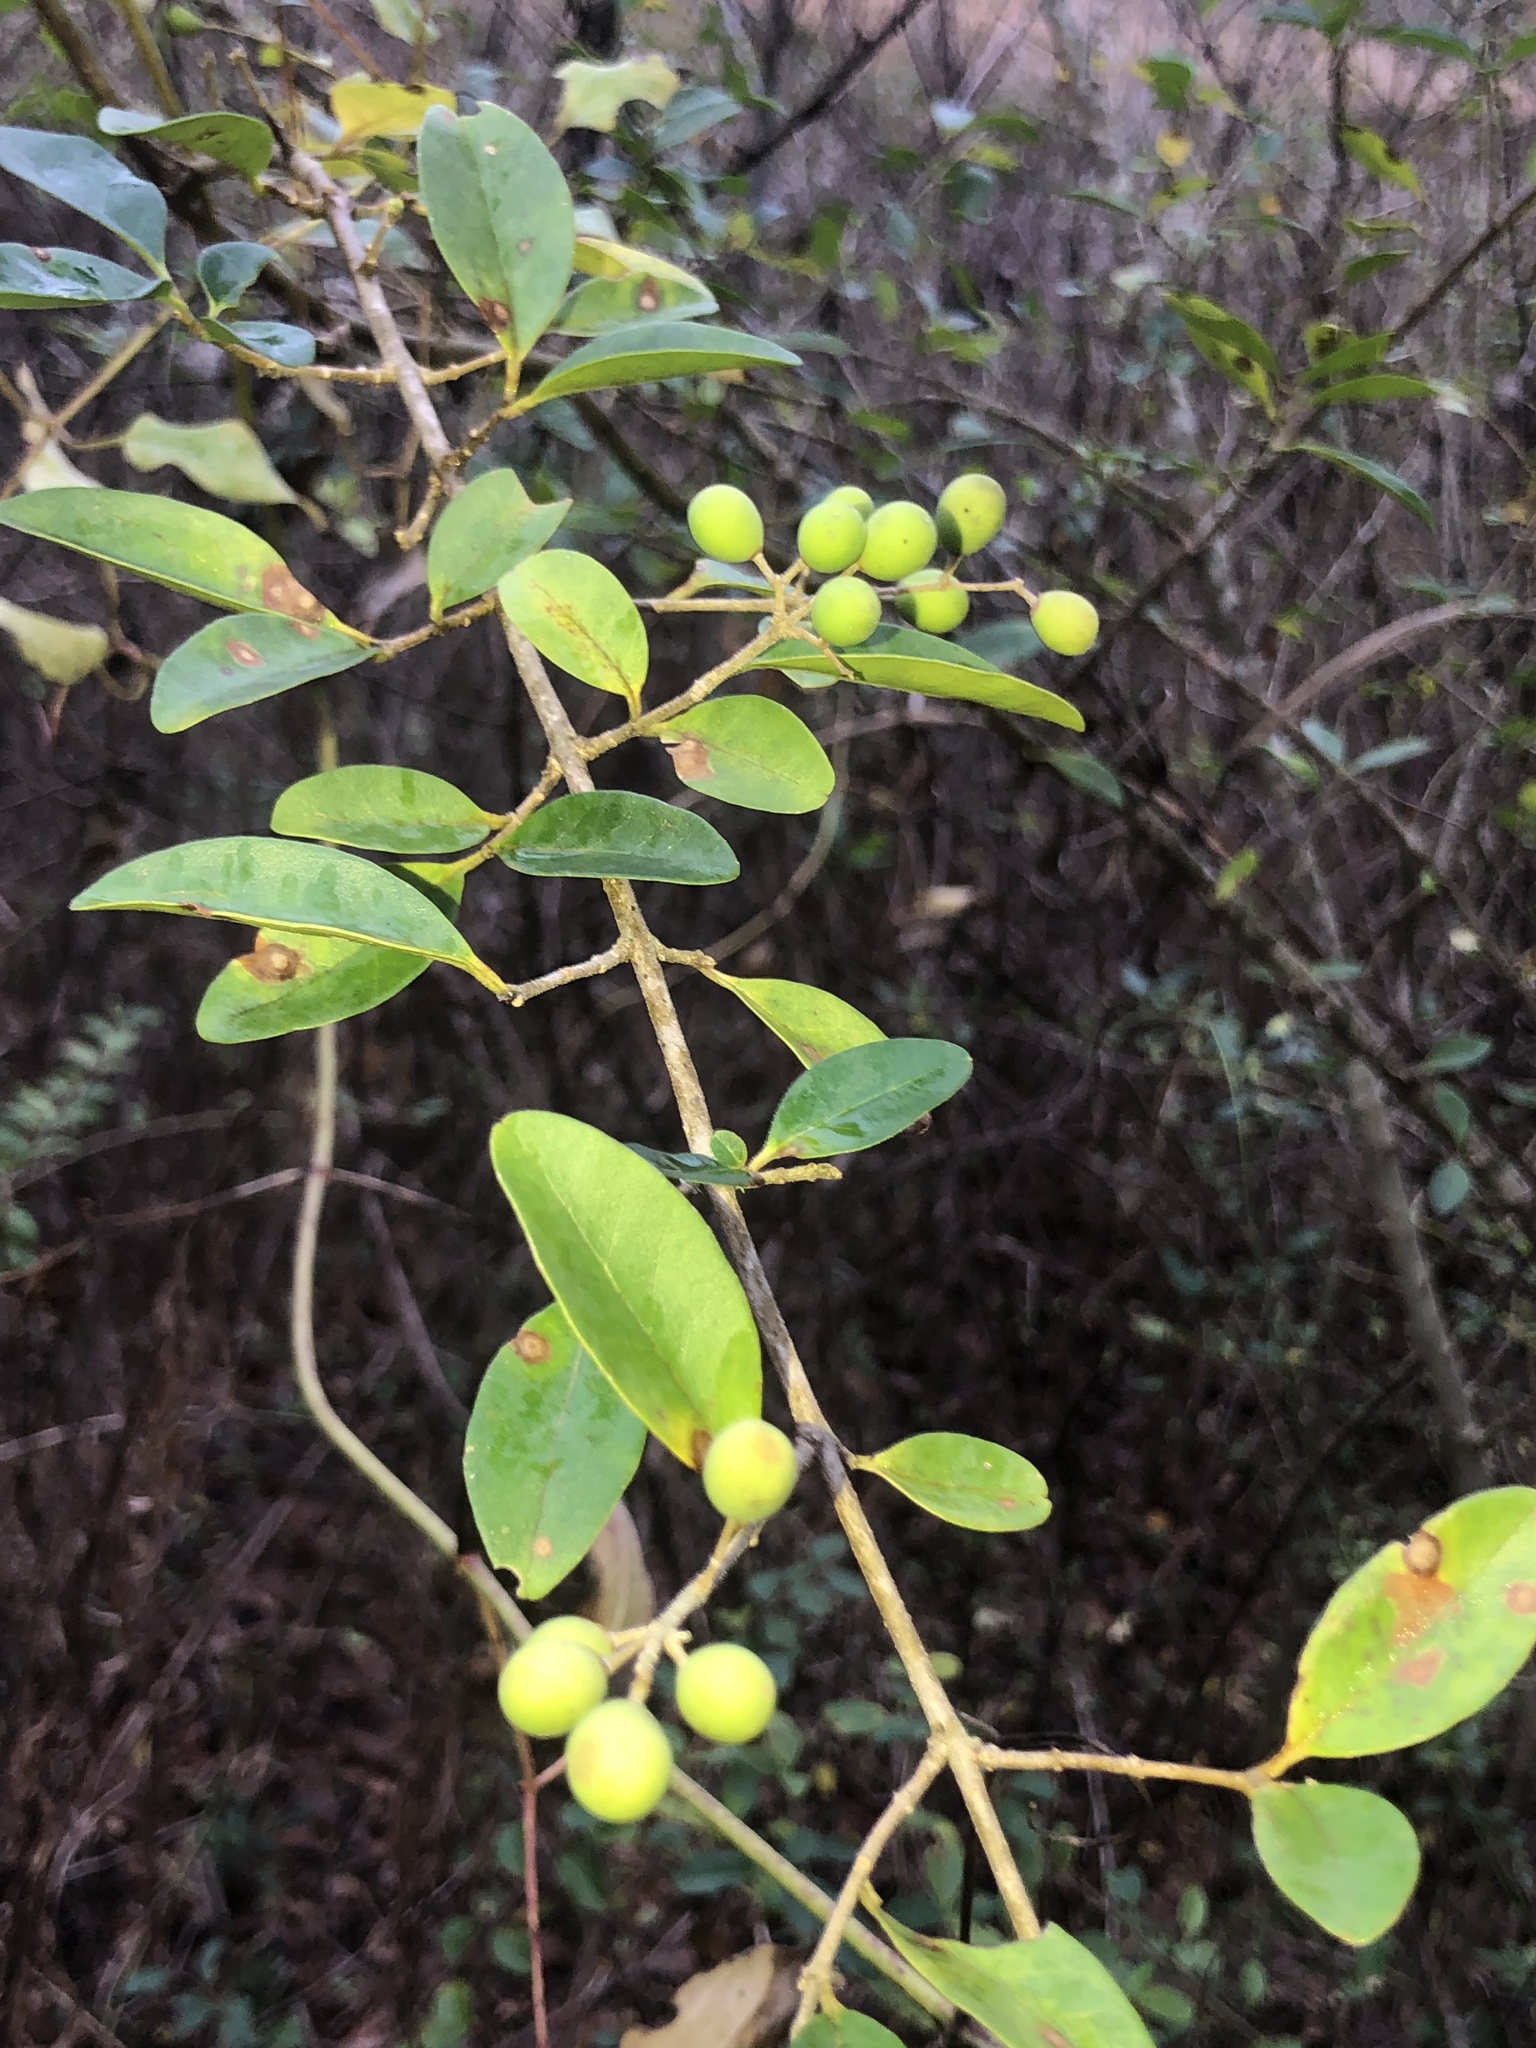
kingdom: Plantae
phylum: Tracheophyta
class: Magnoliopsida
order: Lamiales
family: Oleaceae
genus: Ligustrum
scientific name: Ligustrum sinense
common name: Chinese privet
